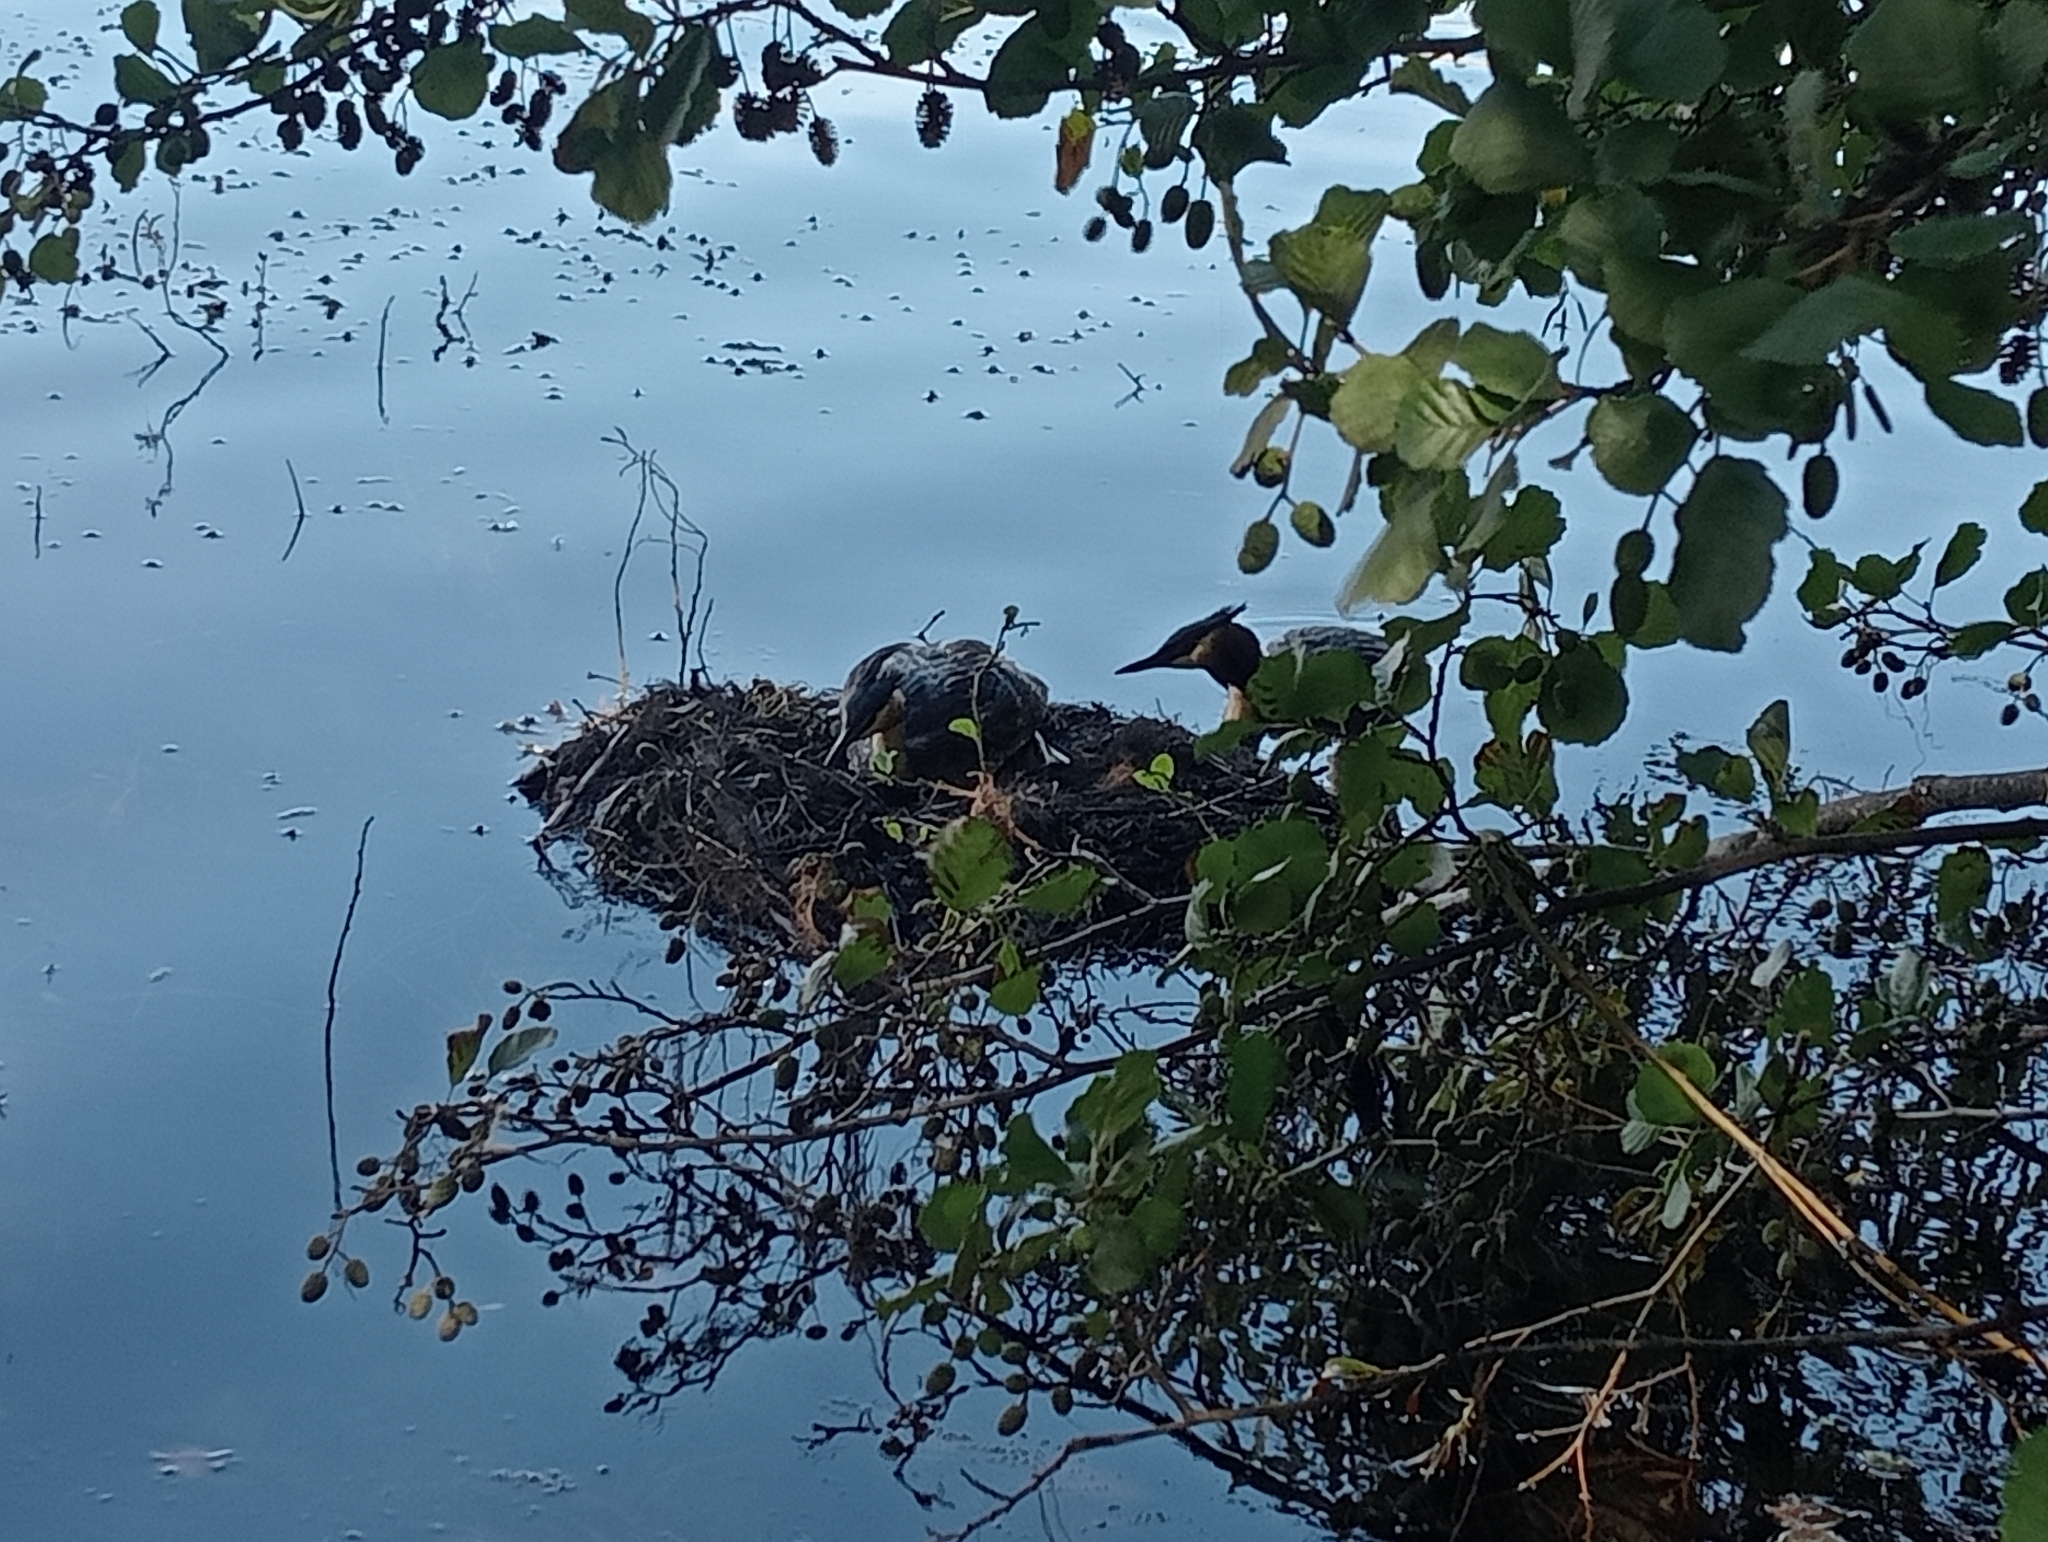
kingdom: Animalia
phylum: Chordata
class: Aves
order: Podicipediformes
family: Podicipedidae
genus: Podiceps
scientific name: Podiceps cristatus
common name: Great crested grebe
